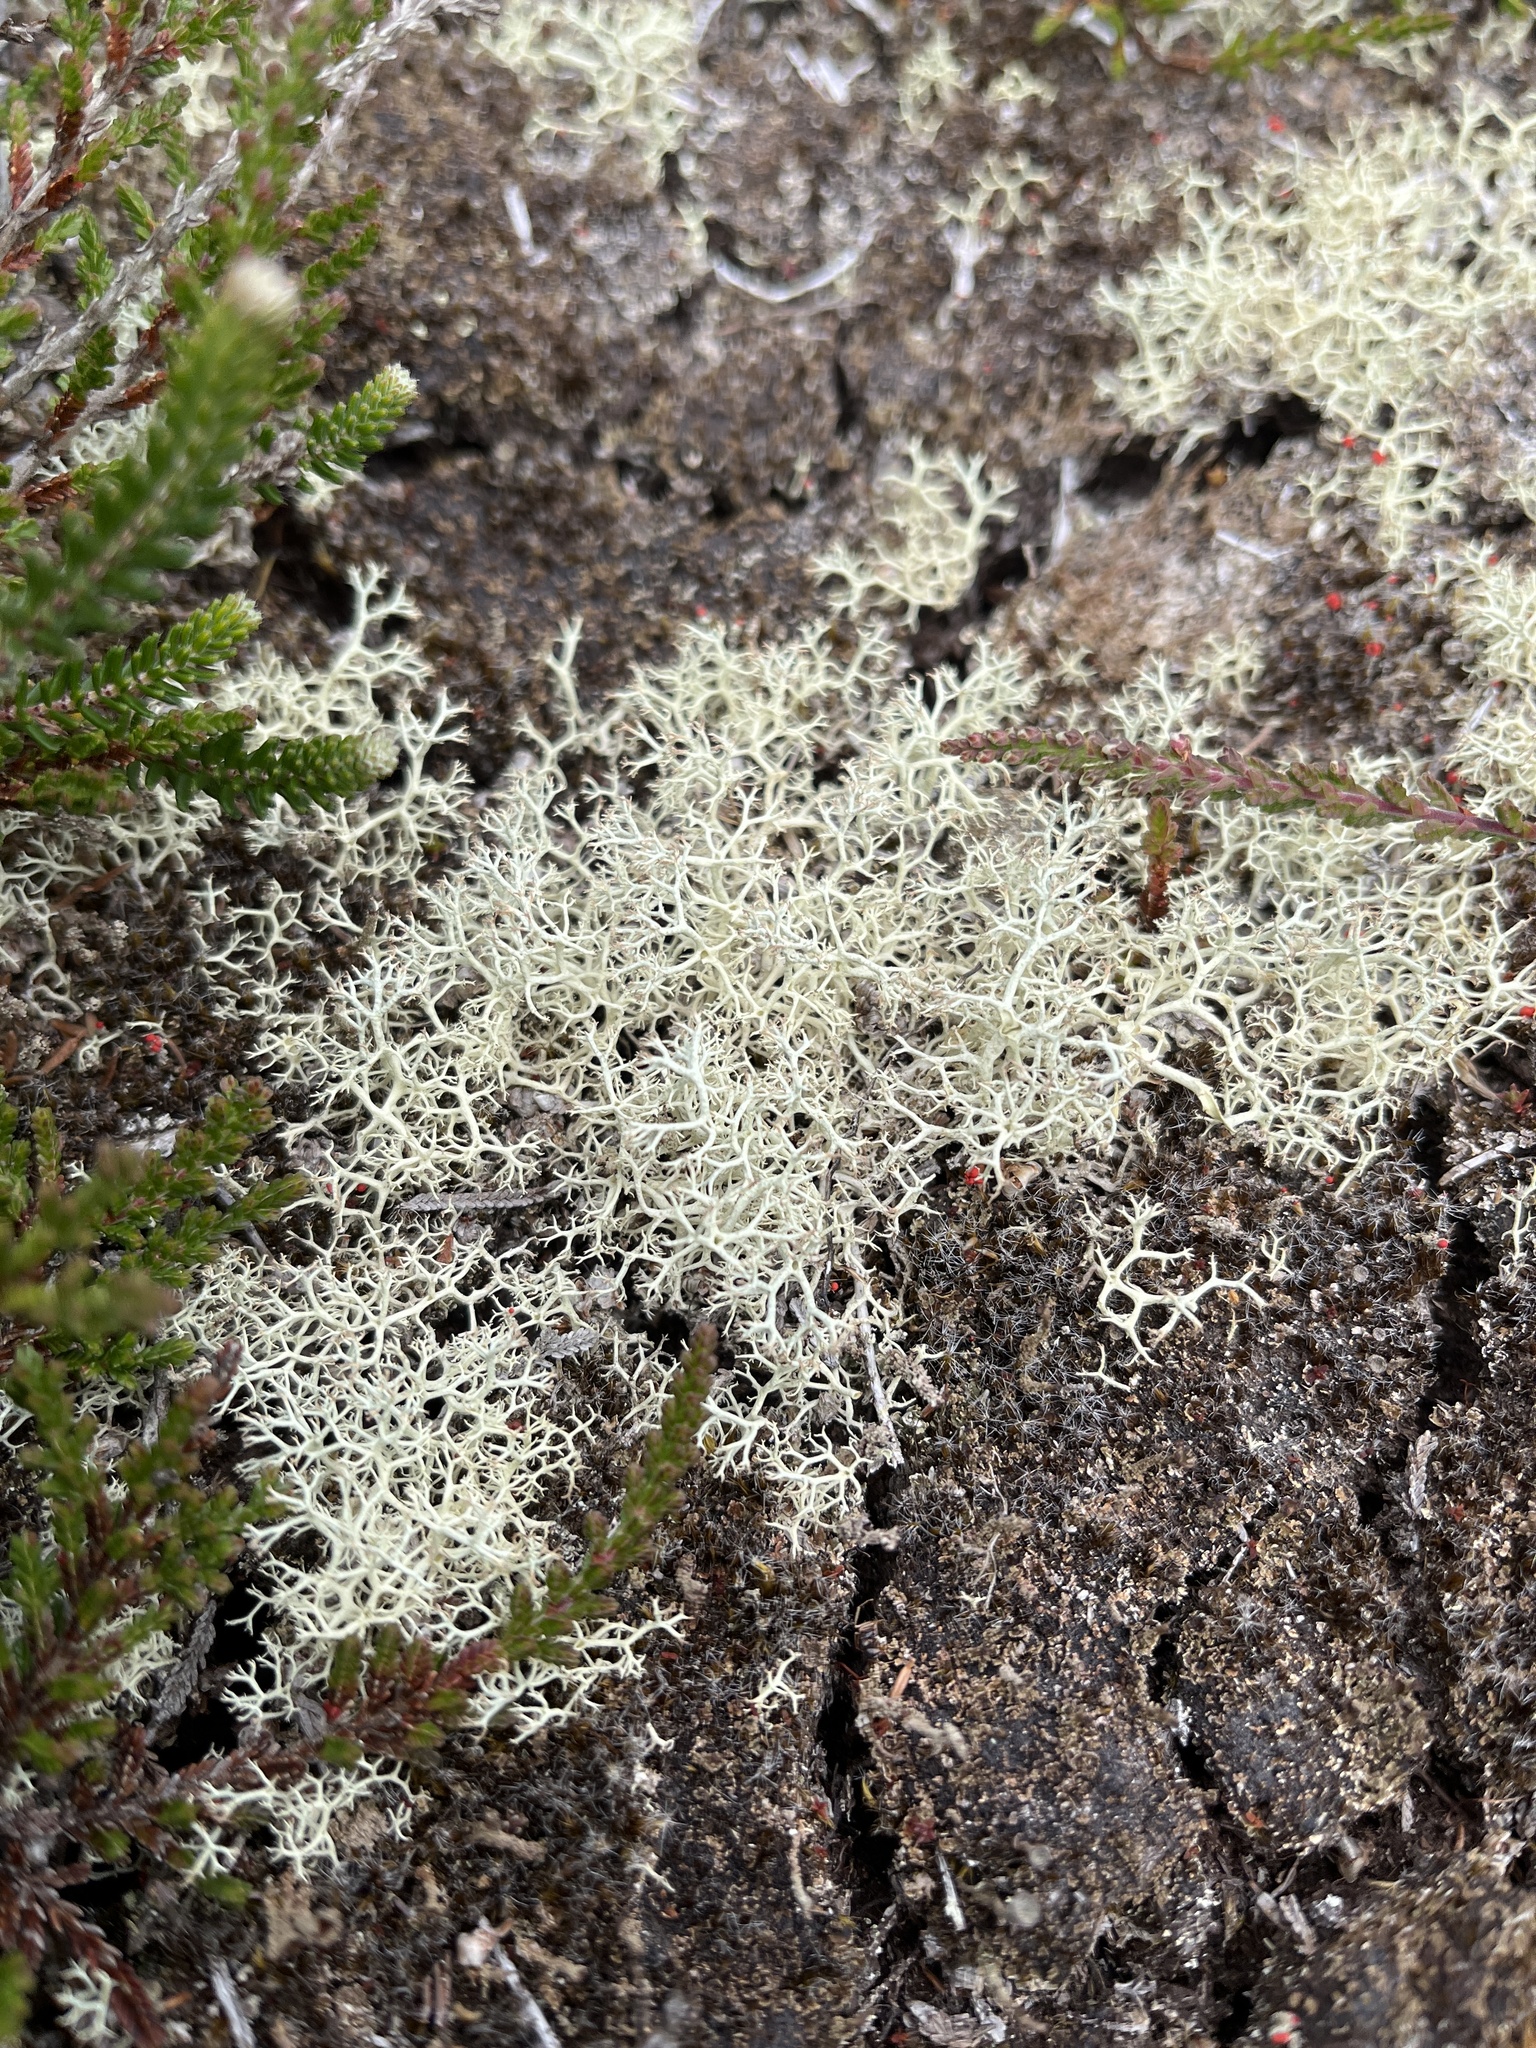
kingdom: Fungi
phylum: Ascomycota
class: Lecanoromycetes
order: Lecanorales
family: Cladoniaceae
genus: Cladonia
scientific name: Cladonia portentosa
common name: Reindeer lichen
